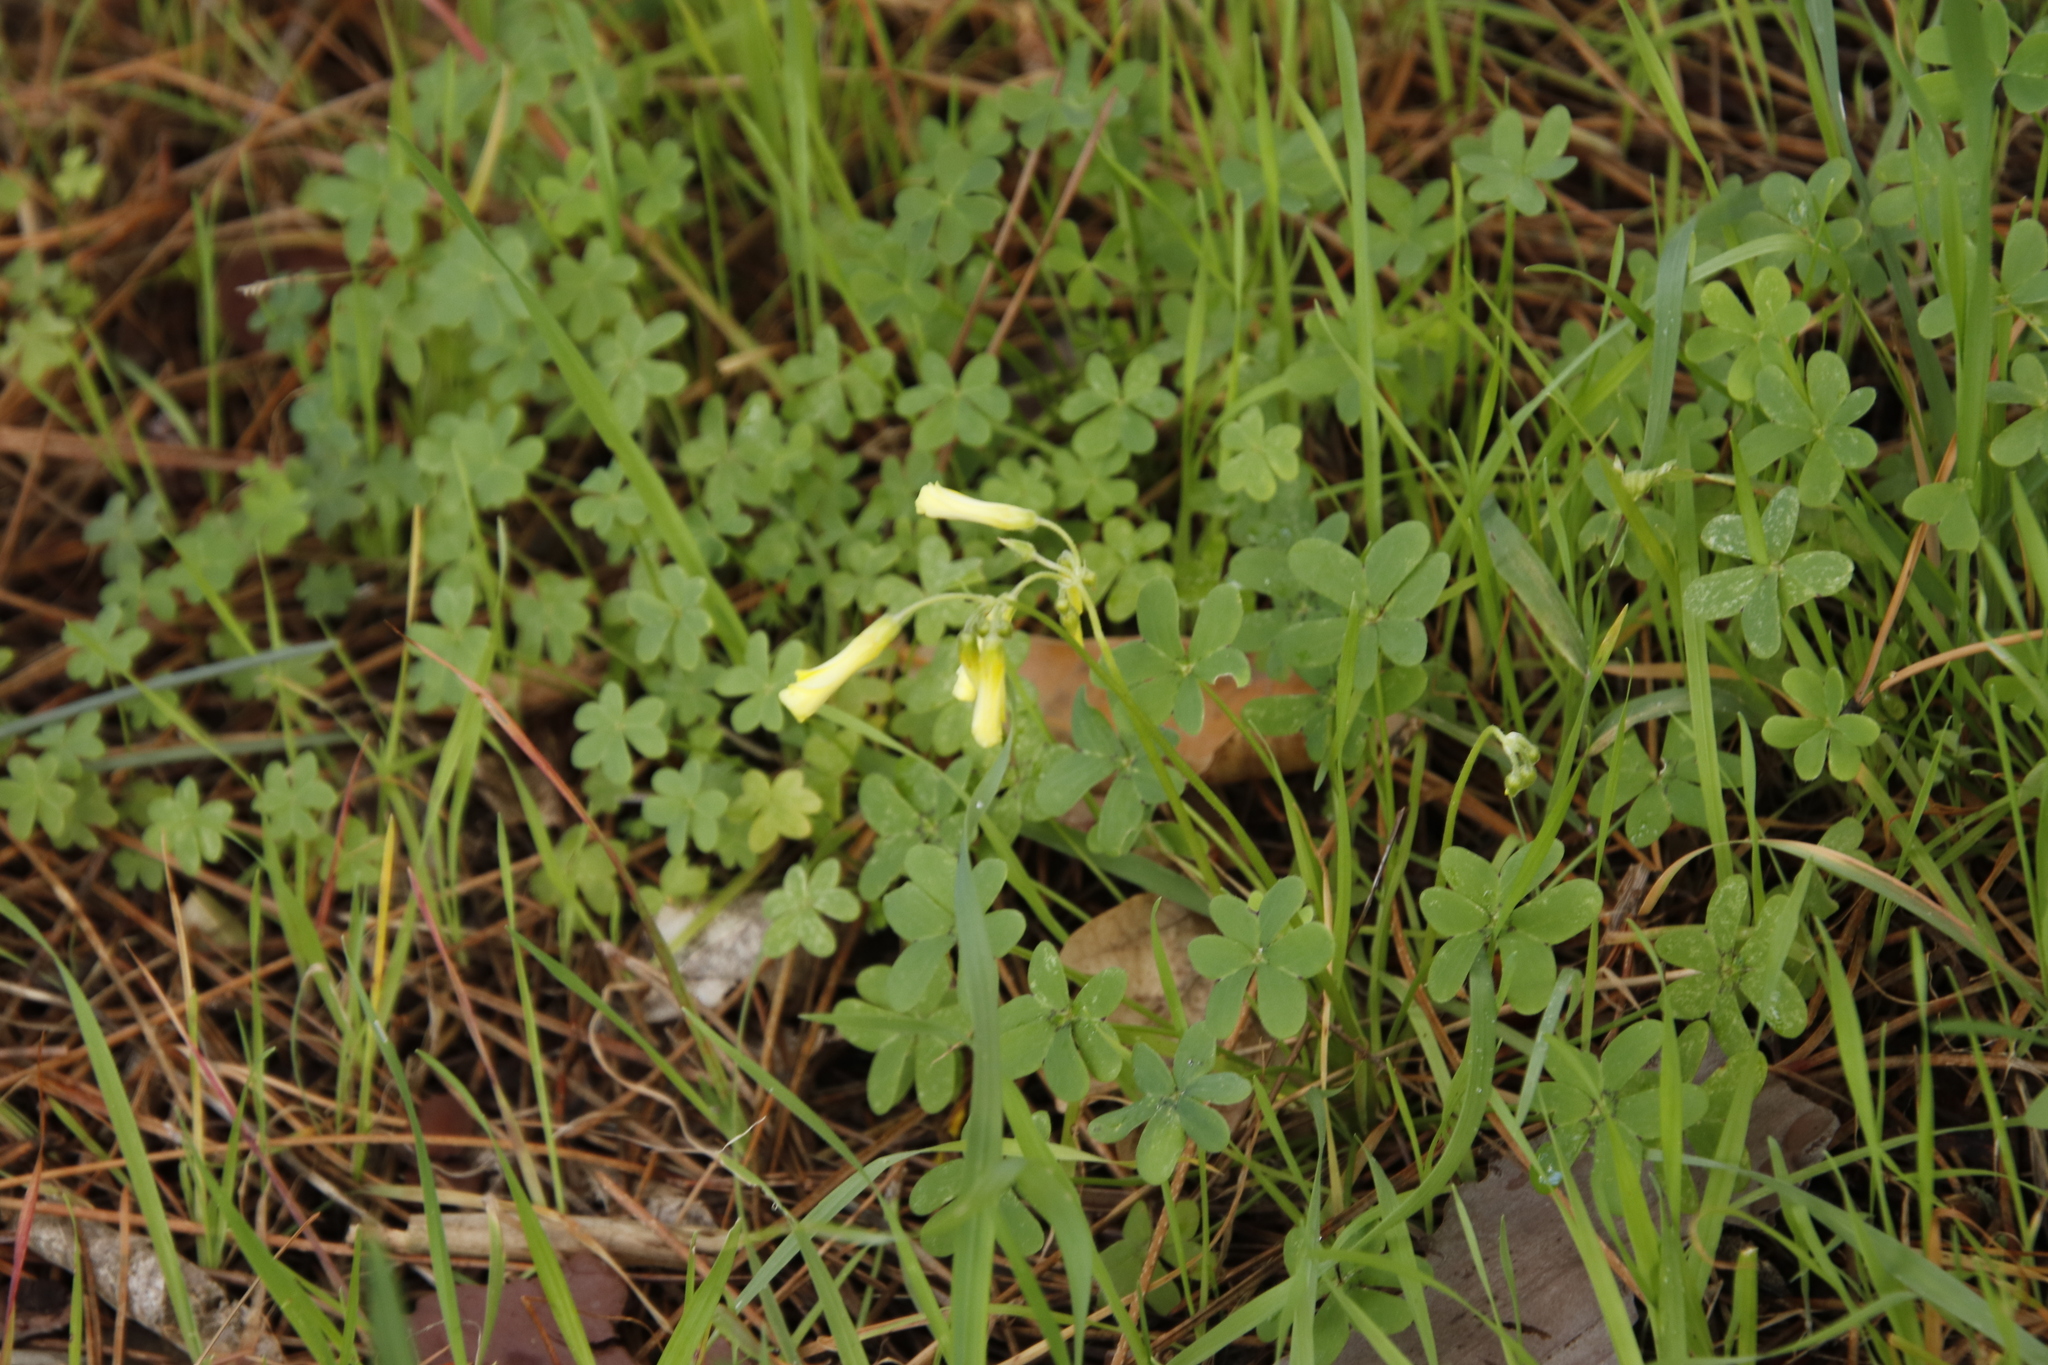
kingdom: Plantae
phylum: Tracheophyta
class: Magnoliopsida
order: Oxalidales
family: Oxalidaceae
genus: Oxalis
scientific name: Oxalis pes-caprae
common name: Bermuda-buttercup
